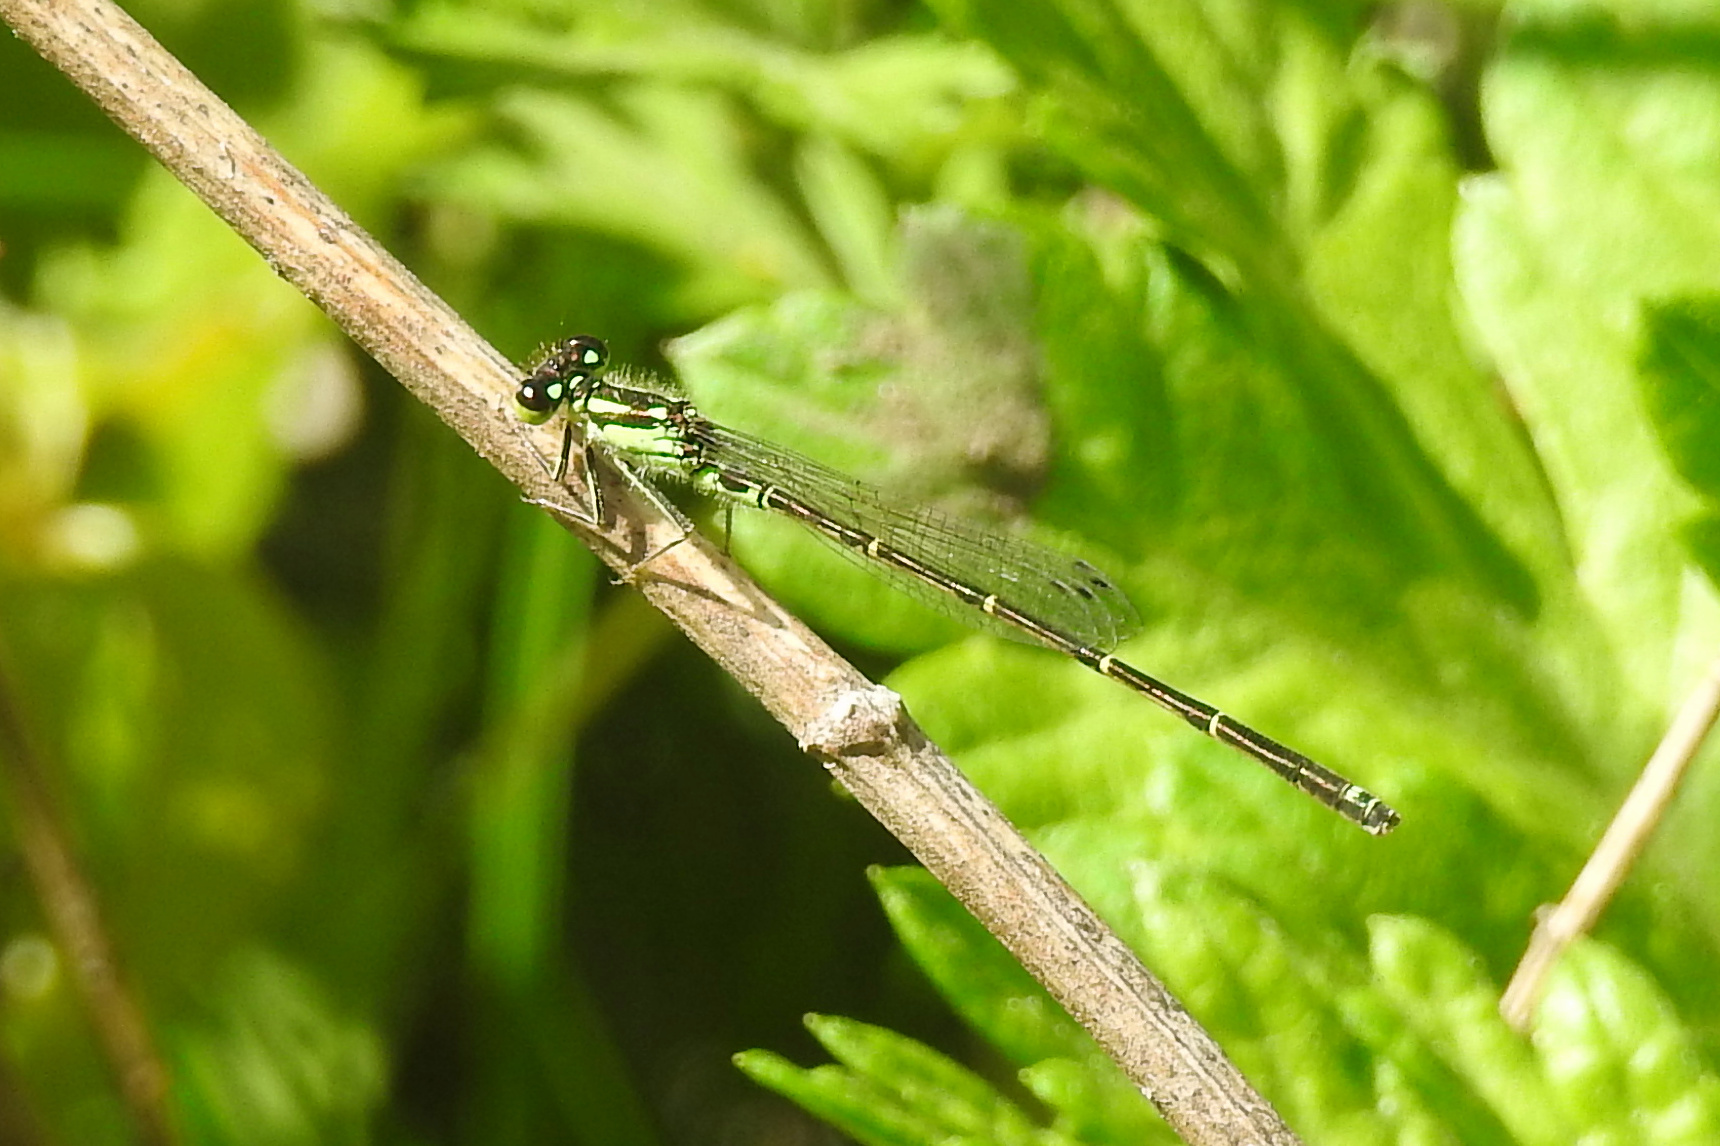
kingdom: Animalia
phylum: Arthropoda
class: Insecta
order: Odonata
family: Coenagrionidae
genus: Ischnura
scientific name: Ischnura posita
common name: Fragile forktail
